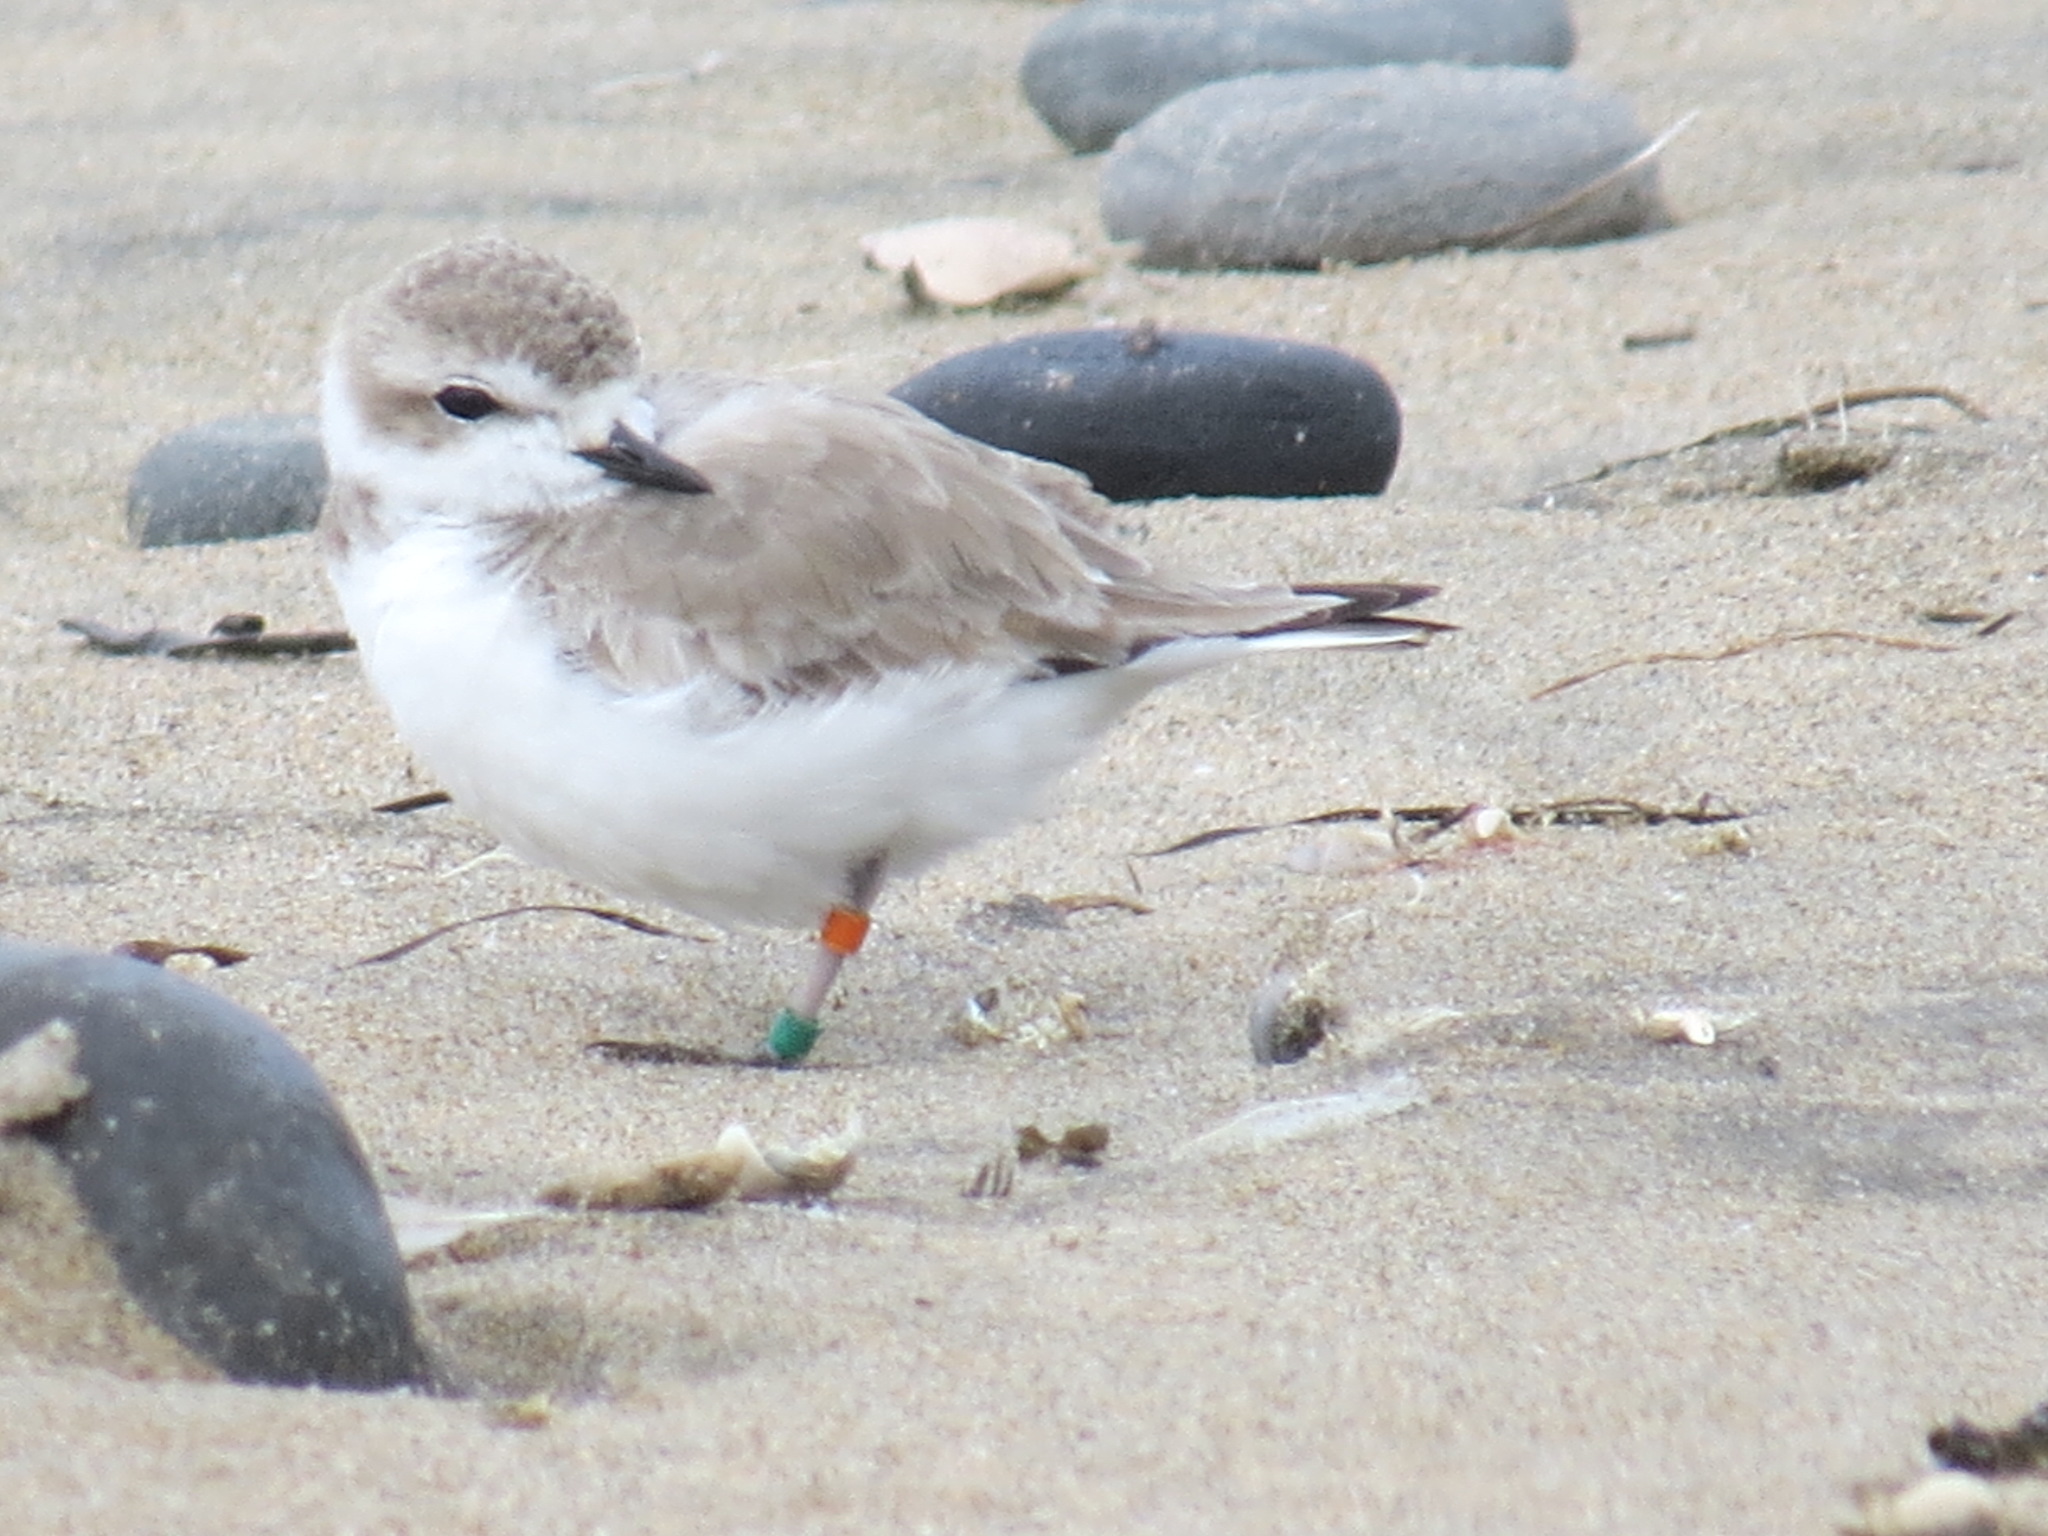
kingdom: Animalia
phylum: Chordata
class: Aves
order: Charadriiformes
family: Charadriidae
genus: Anarhynchus
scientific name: Anarhynchus
